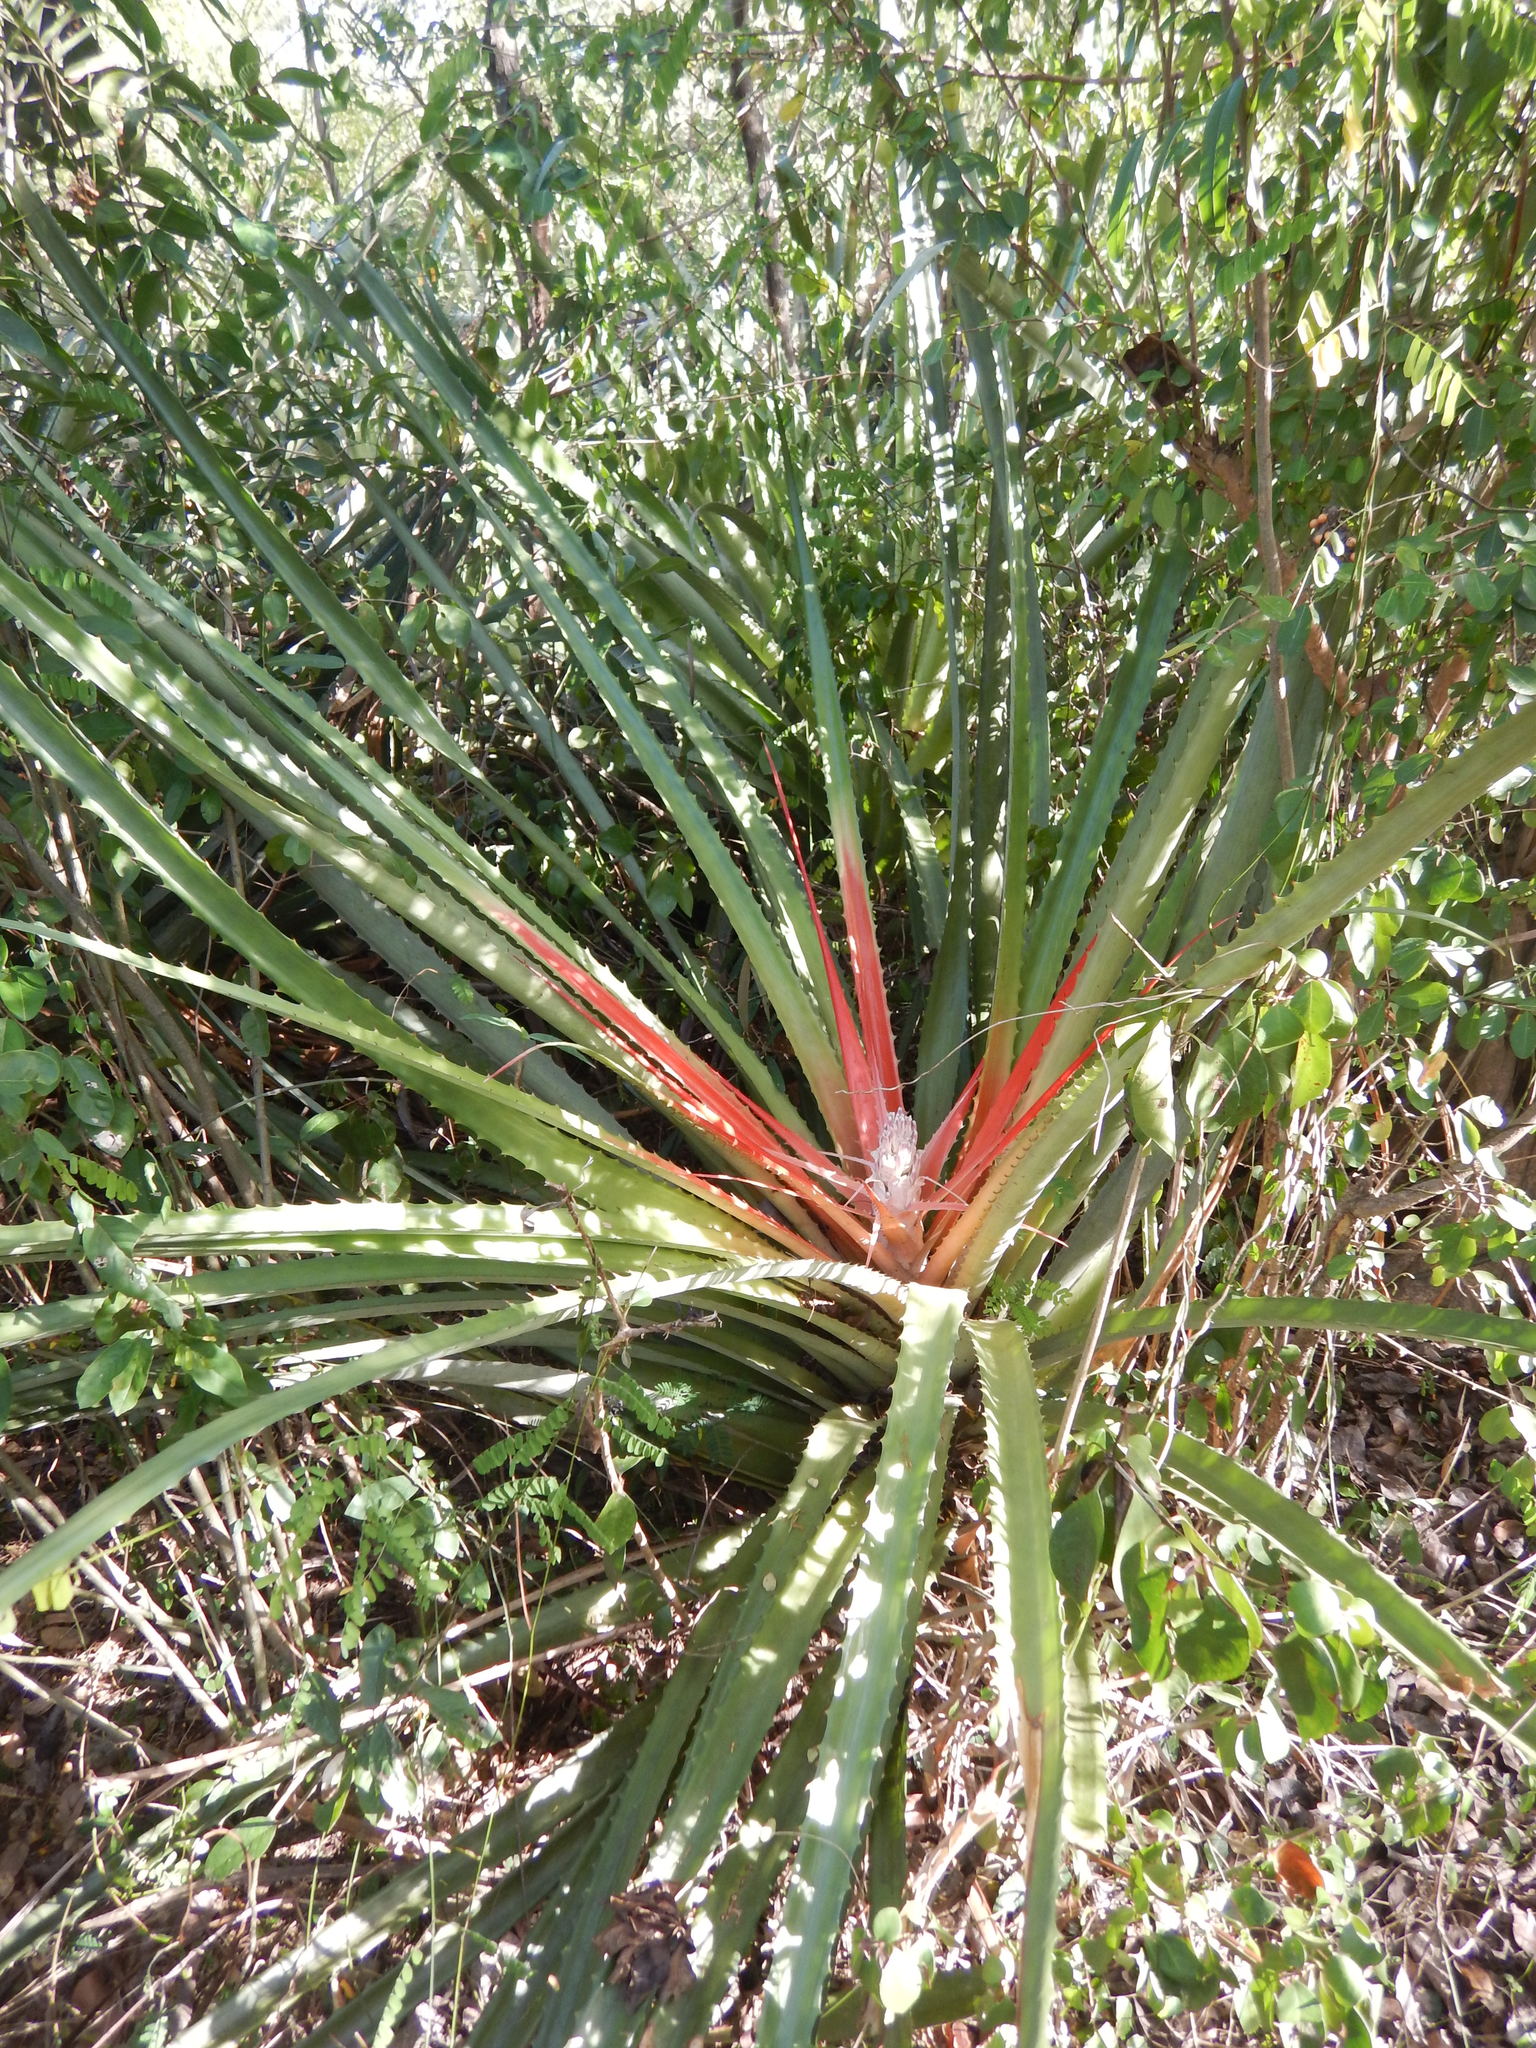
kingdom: Plantae
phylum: Tracheophyta
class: Liliopsida
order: Poales
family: Bromeliaceae
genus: Bromelia
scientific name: Bromelia pinguin
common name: Pinguin
